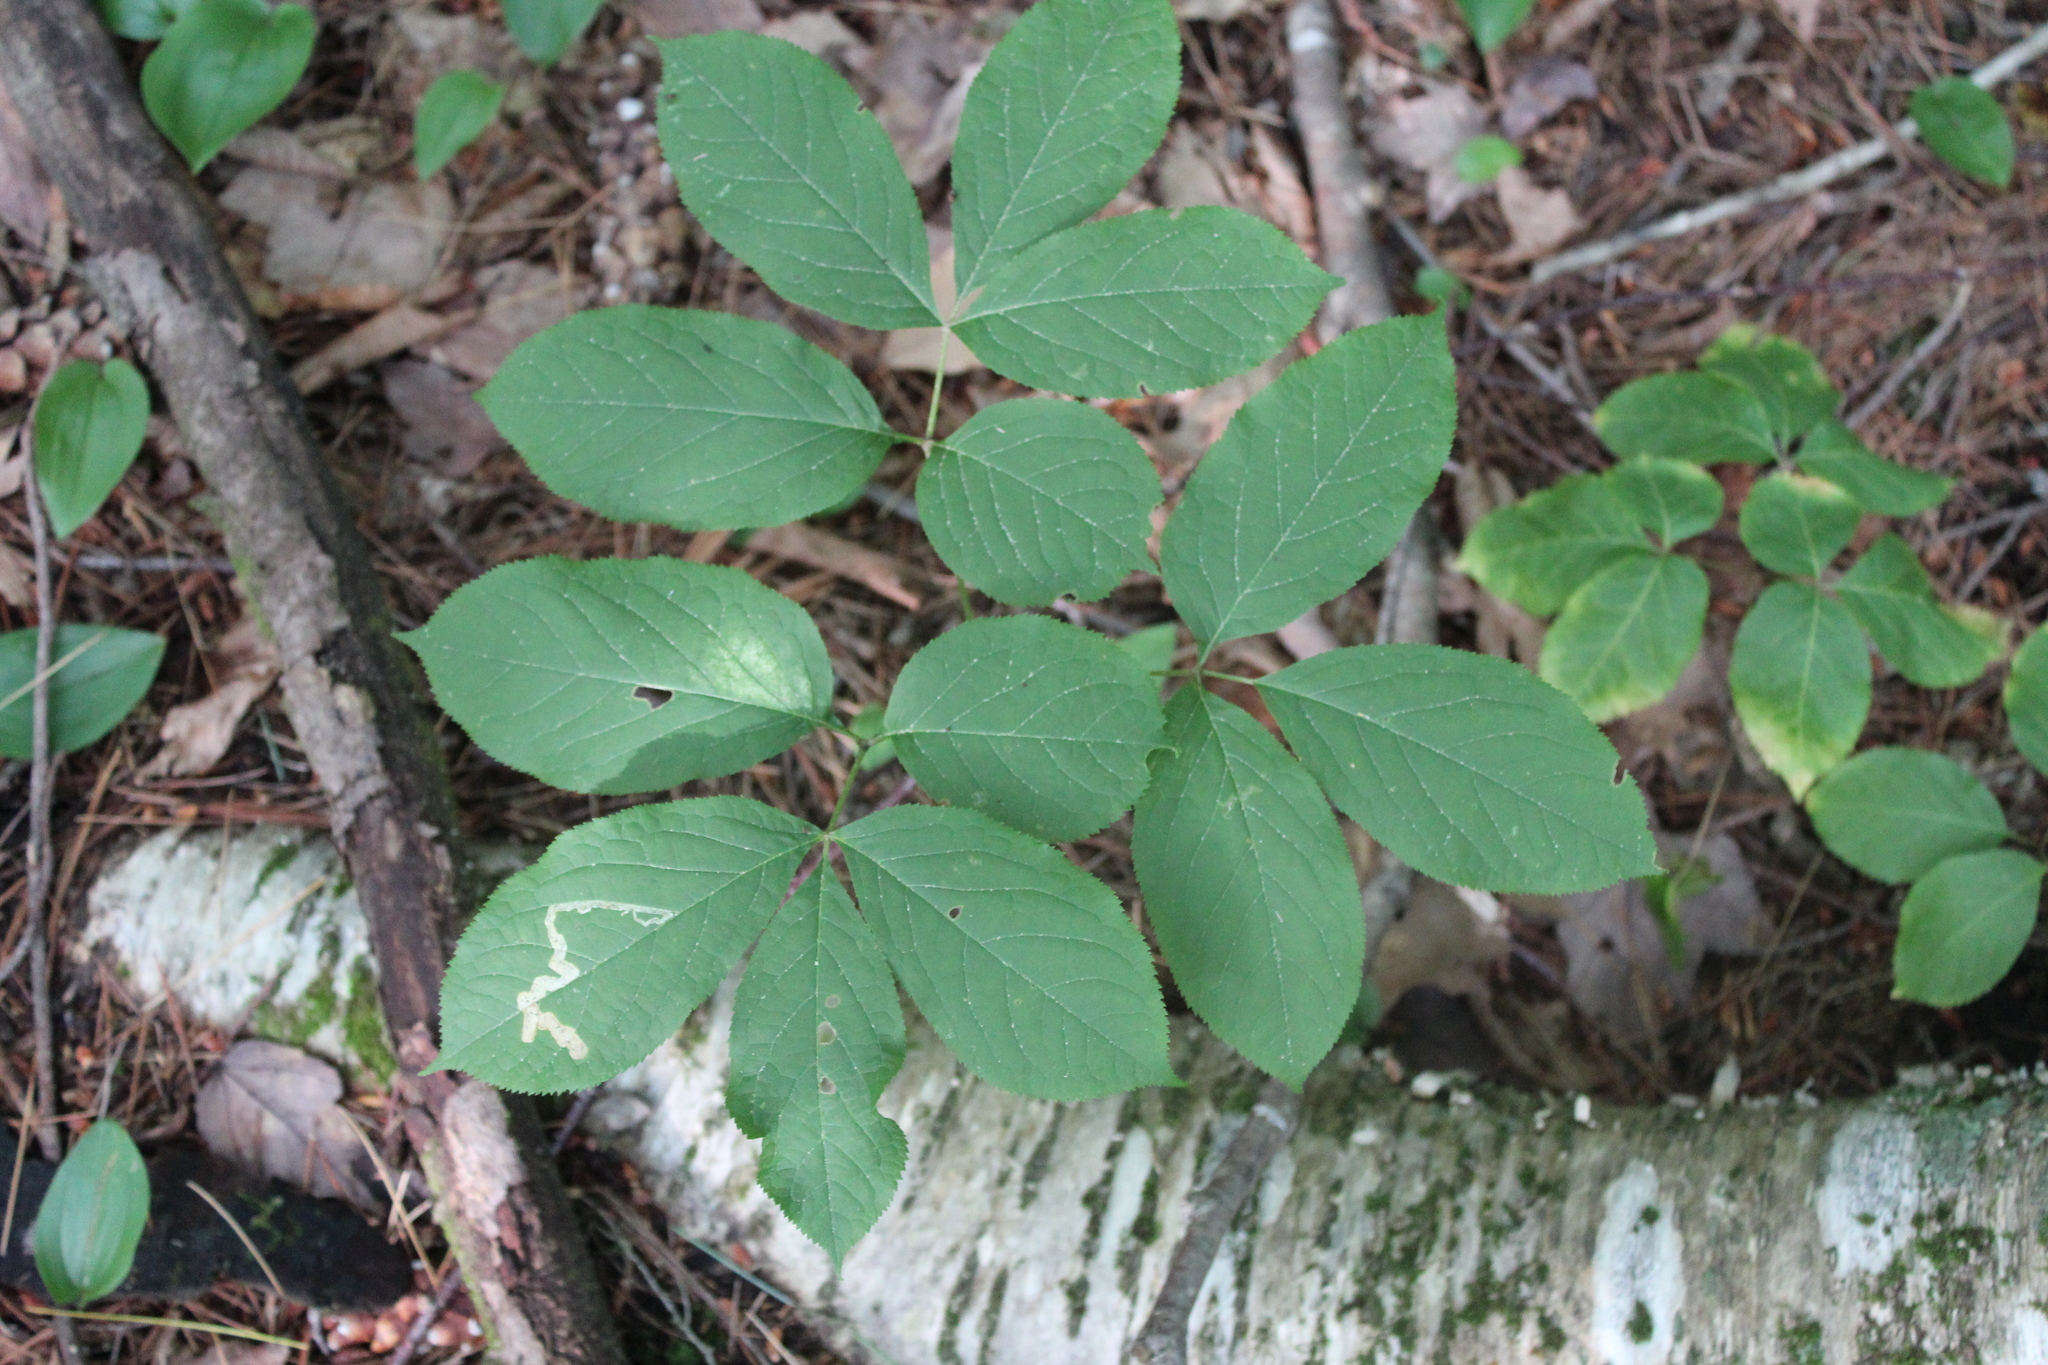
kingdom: Plantae
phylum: Tracheophyta
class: Magnoliopsida
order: Apiales
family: Araliaceae
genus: Aralia
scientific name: Aralia nudicaulis
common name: Wild sarsaparilla
